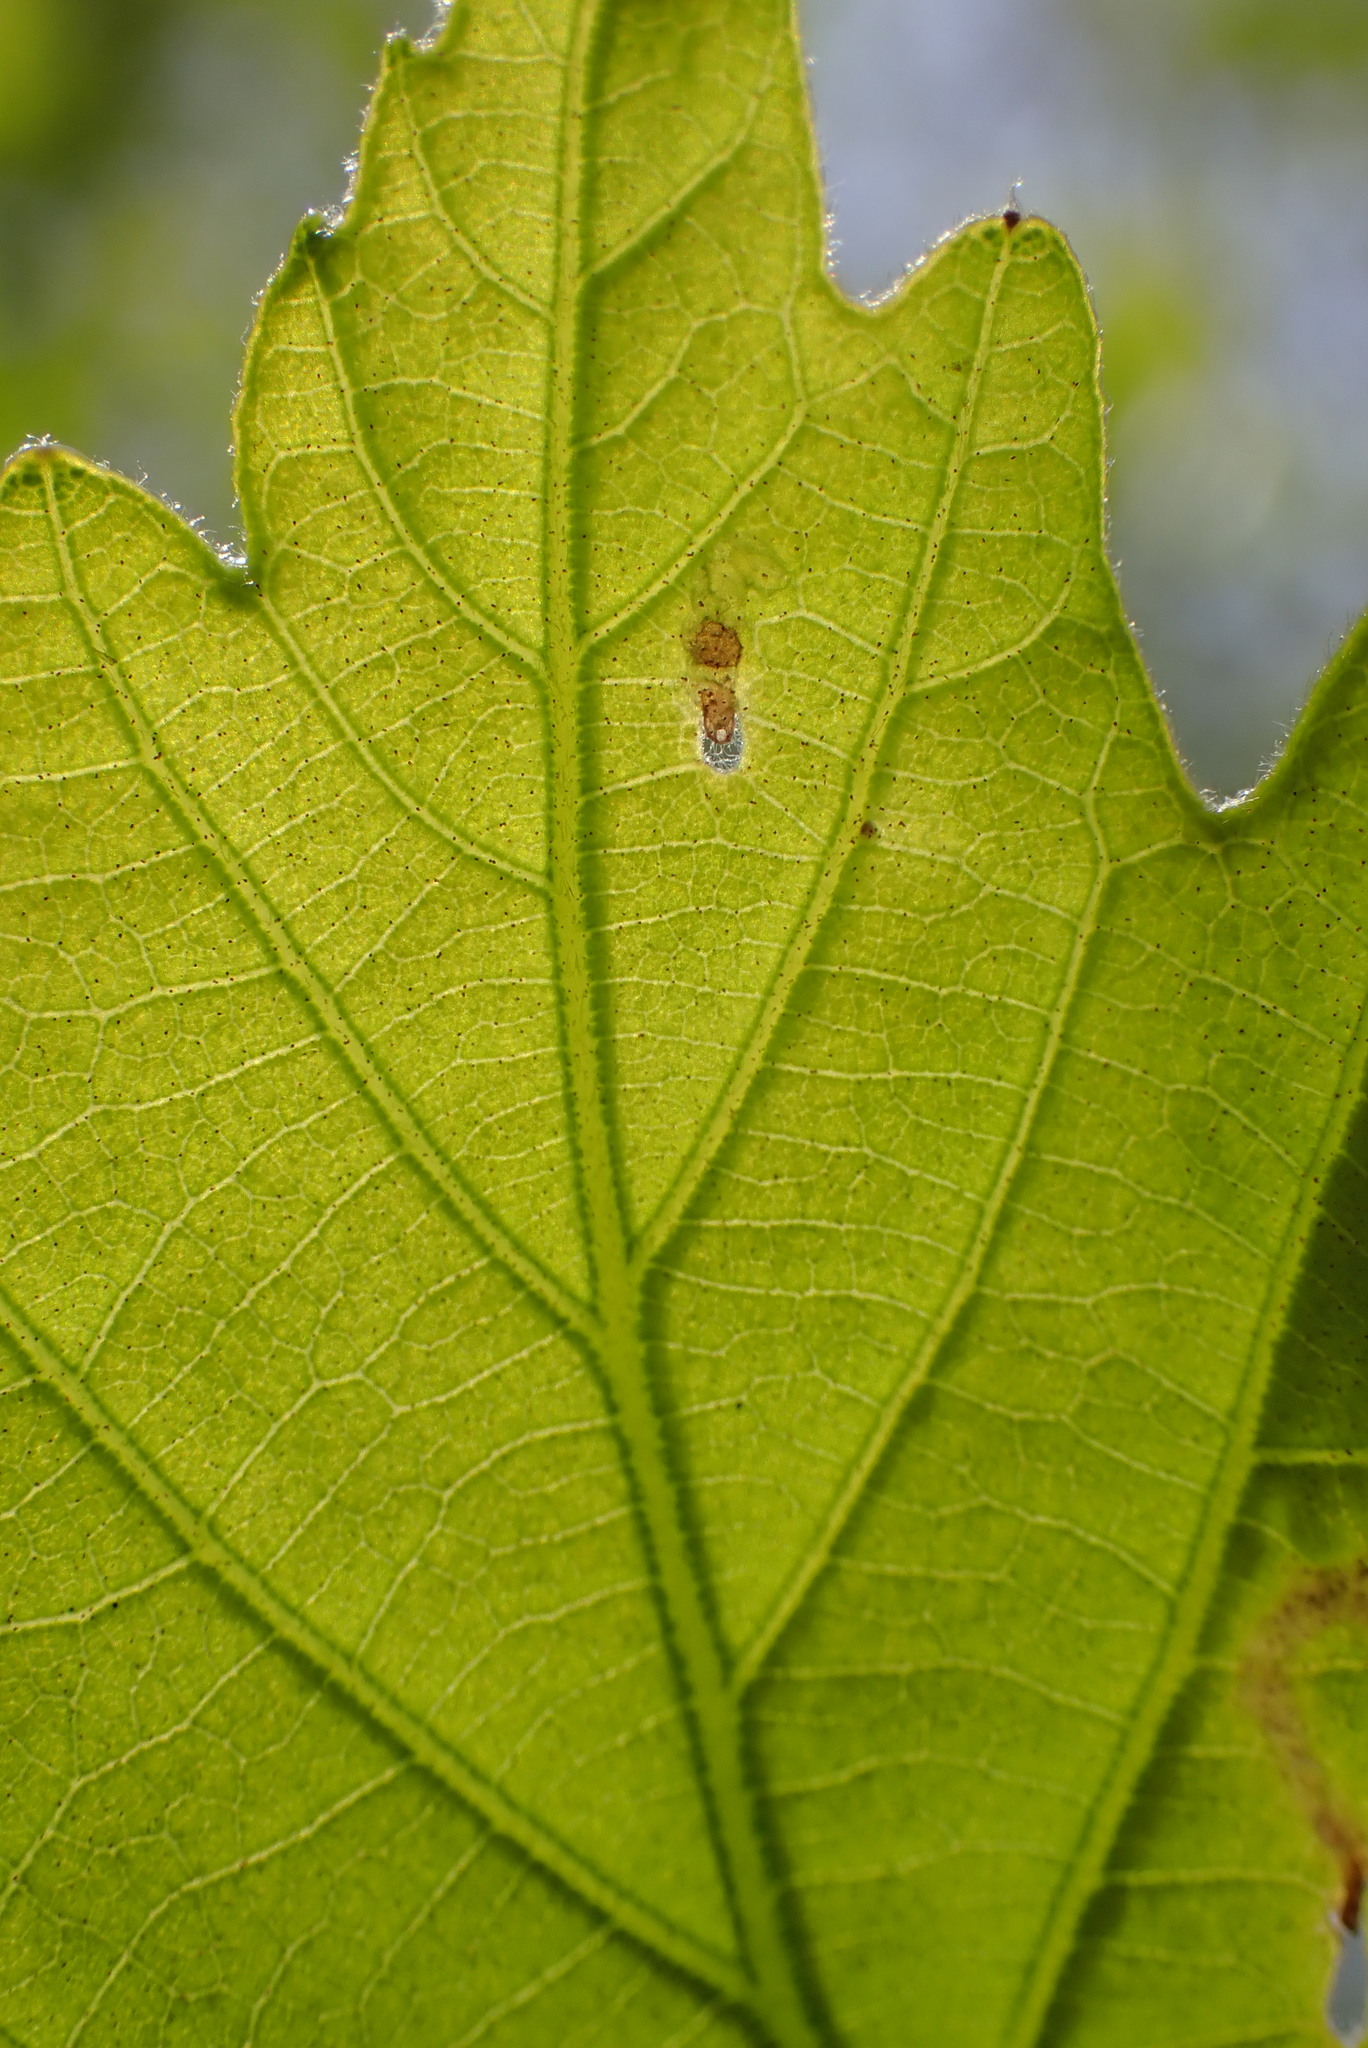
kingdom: Animalia
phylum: Arthropoda
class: Insecta
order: Diptera
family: Agromyzidae
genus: Japanagromyza
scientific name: Japanagromyza viridula
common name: Oak shothole leafminer
